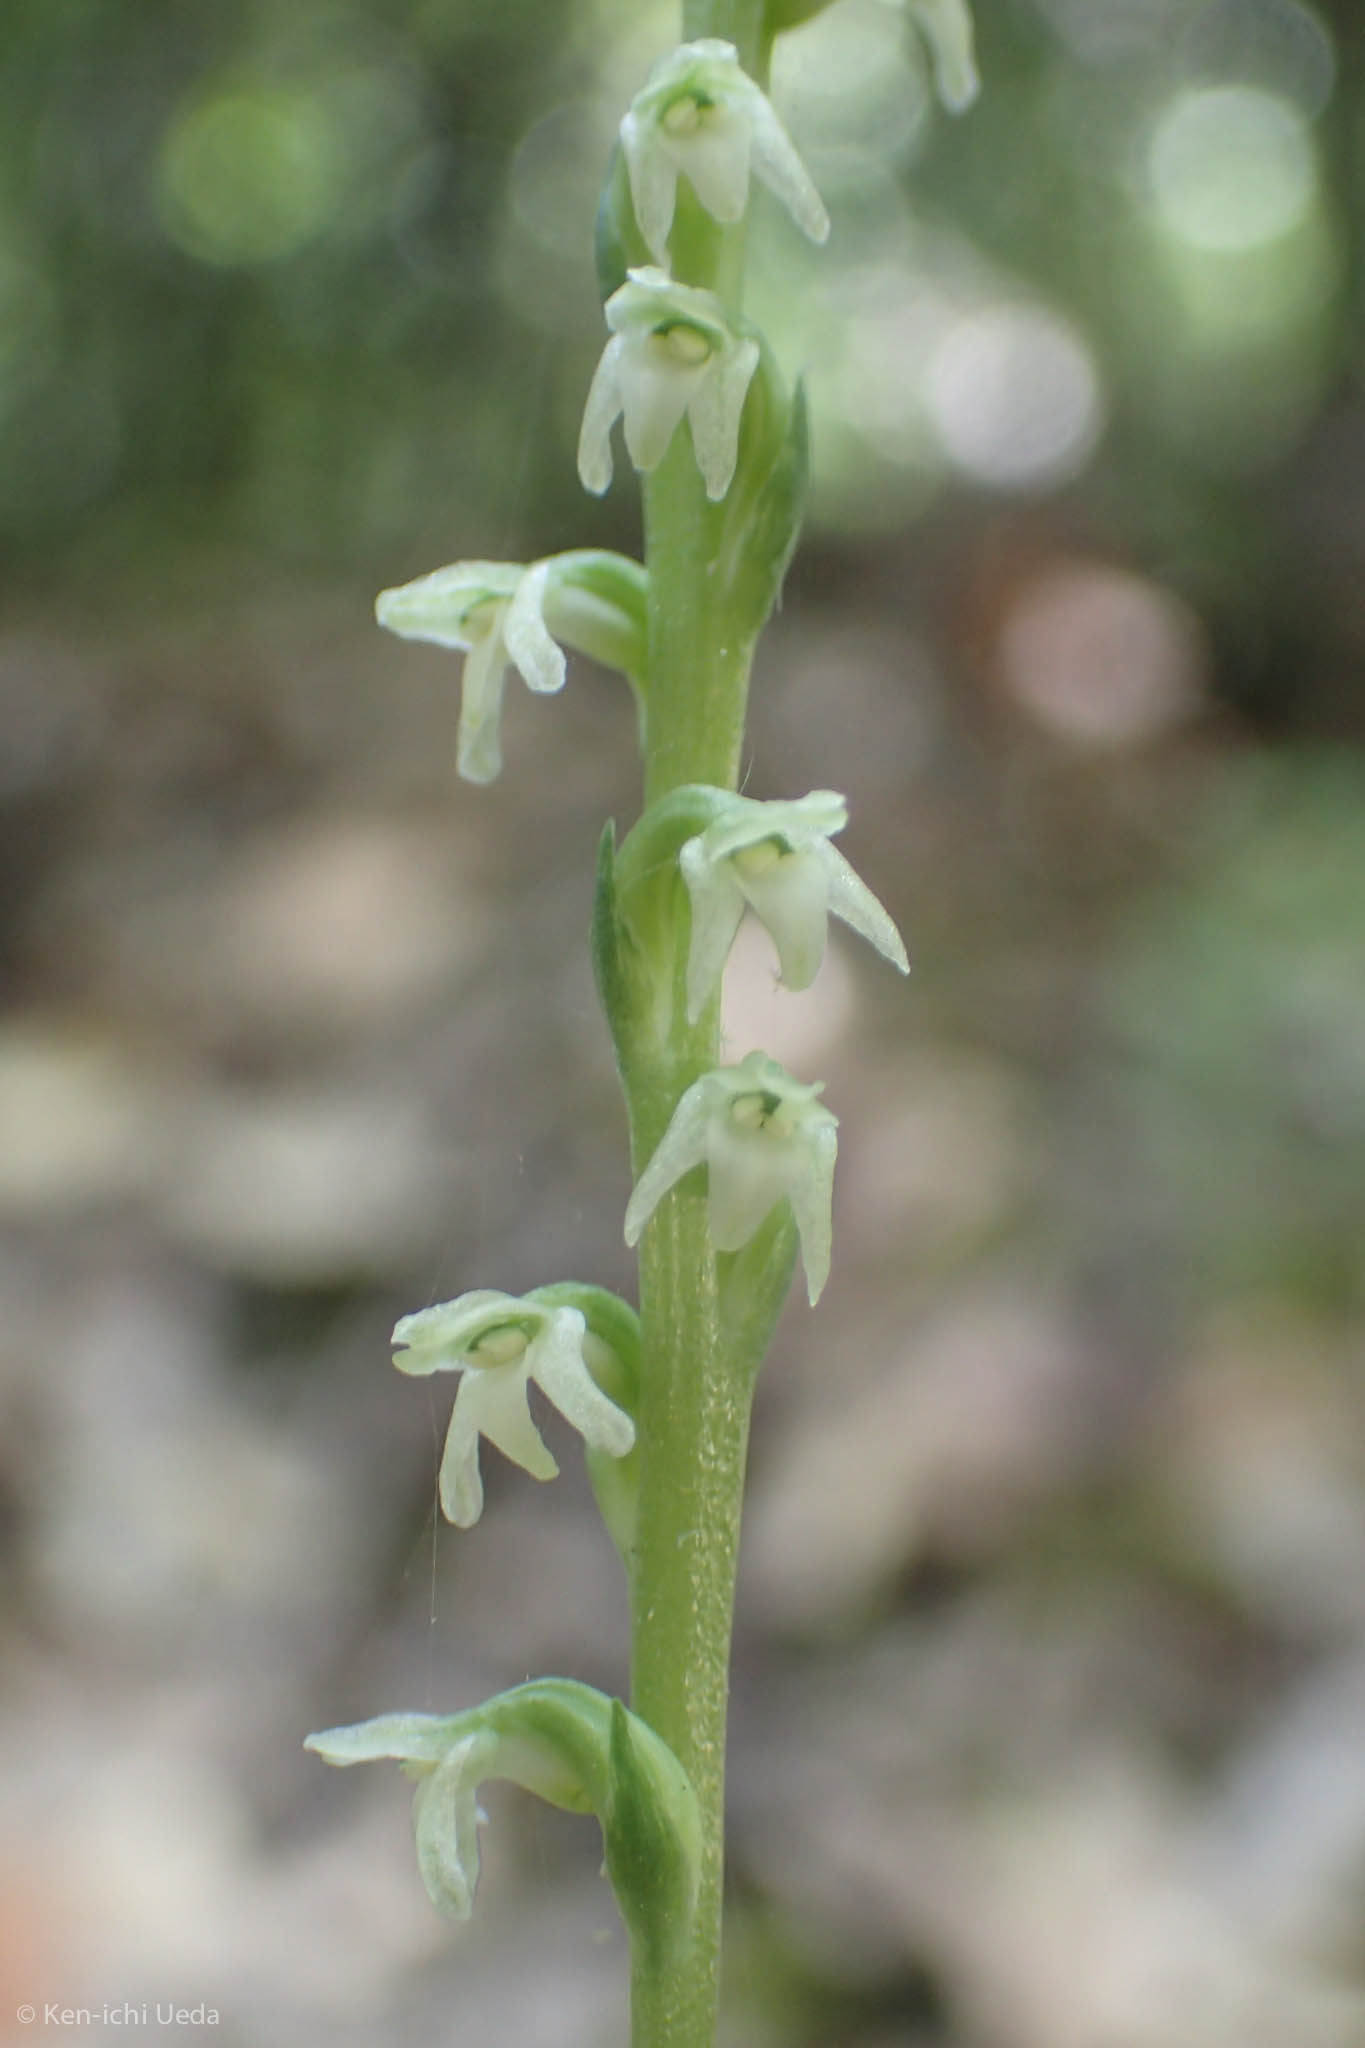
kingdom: Plantae
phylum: Tracheophyta
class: Liliopsida
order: Asparagales
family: Orchidaceae
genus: Platanthera
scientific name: Platanthera ephemerantha
